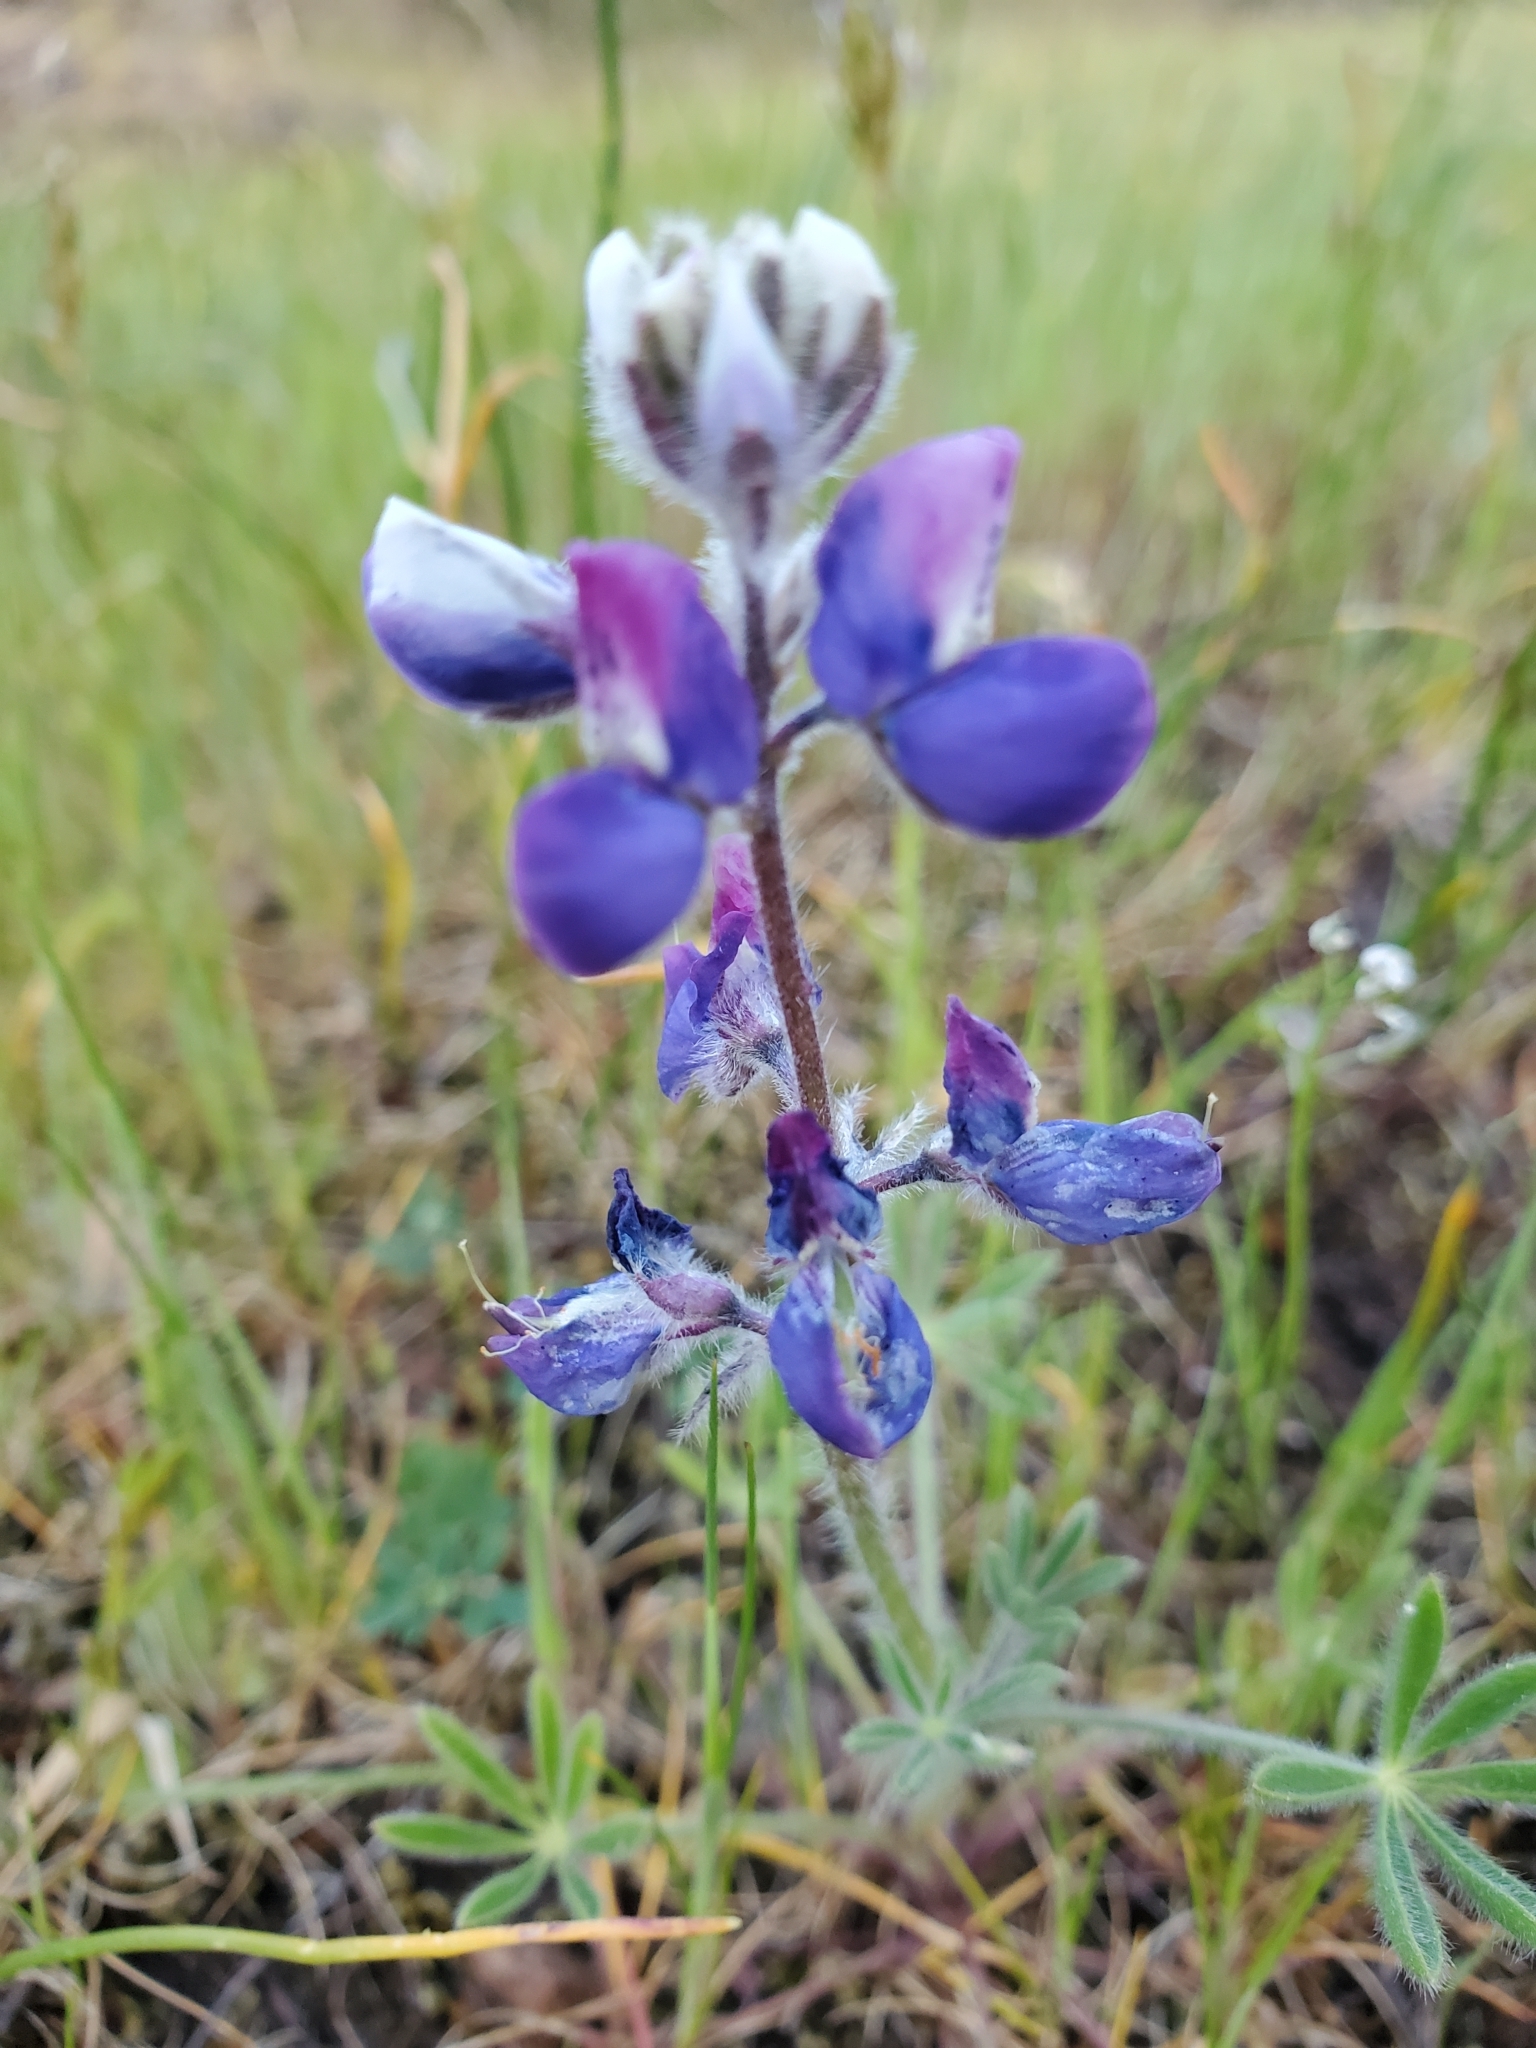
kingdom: Plantae
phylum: Tracheophyta
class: Magnoliopsida
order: Fabales
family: Fabaceae
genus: Lupinus
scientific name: Lupinus bicolor
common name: Miniature lupine
